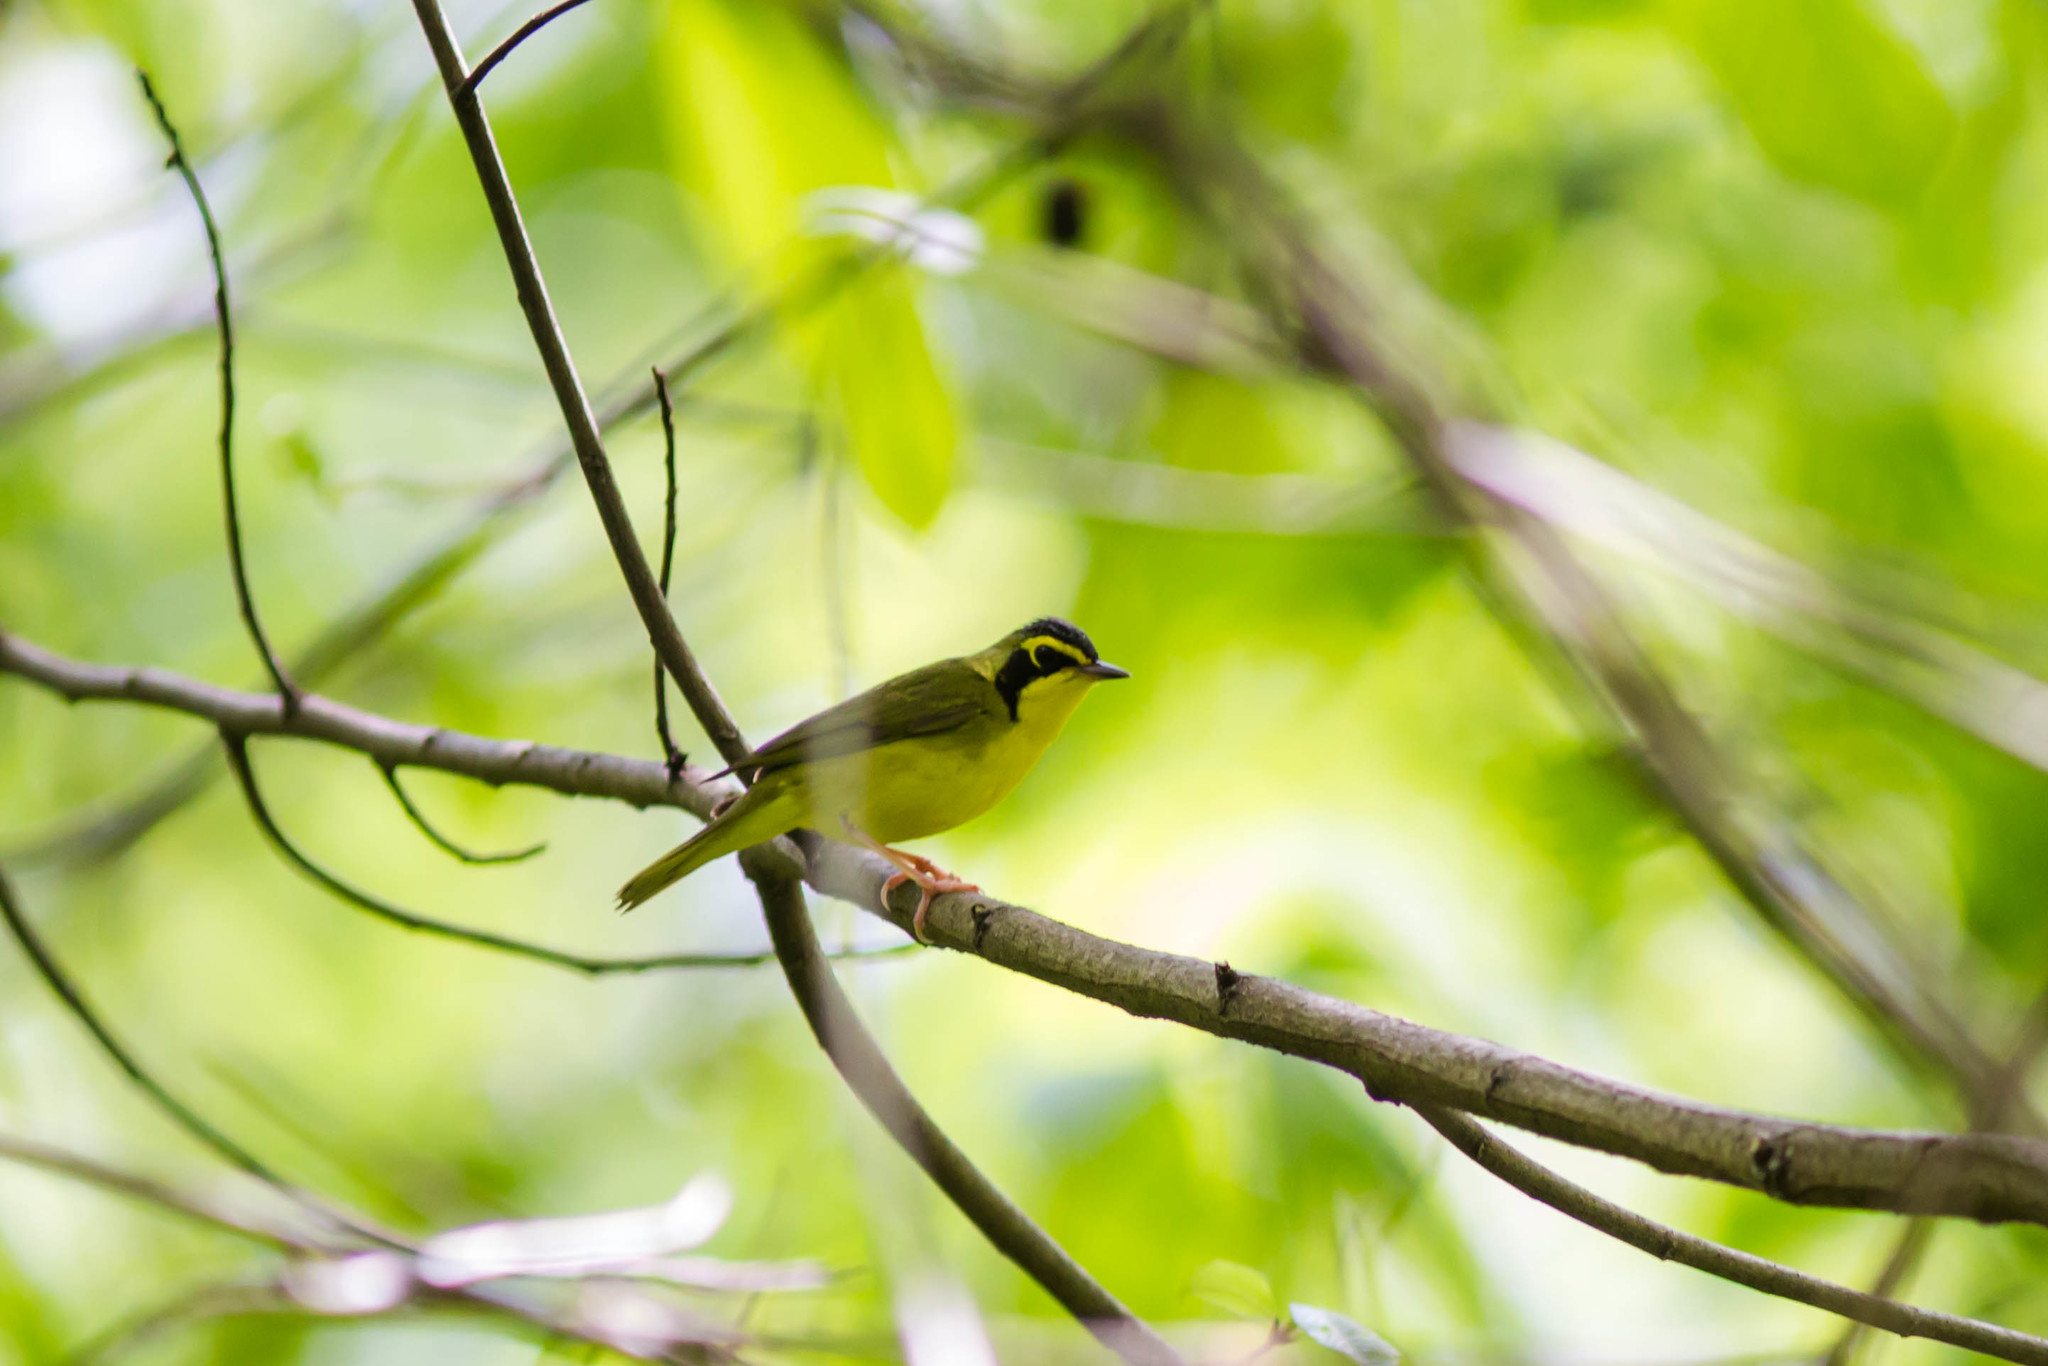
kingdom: Animalia
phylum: Chordata
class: Aves
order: Passeriformes
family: Parulidae
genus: Geothlypis
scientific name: Geothlypis formosa
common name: Kentucky warbler
